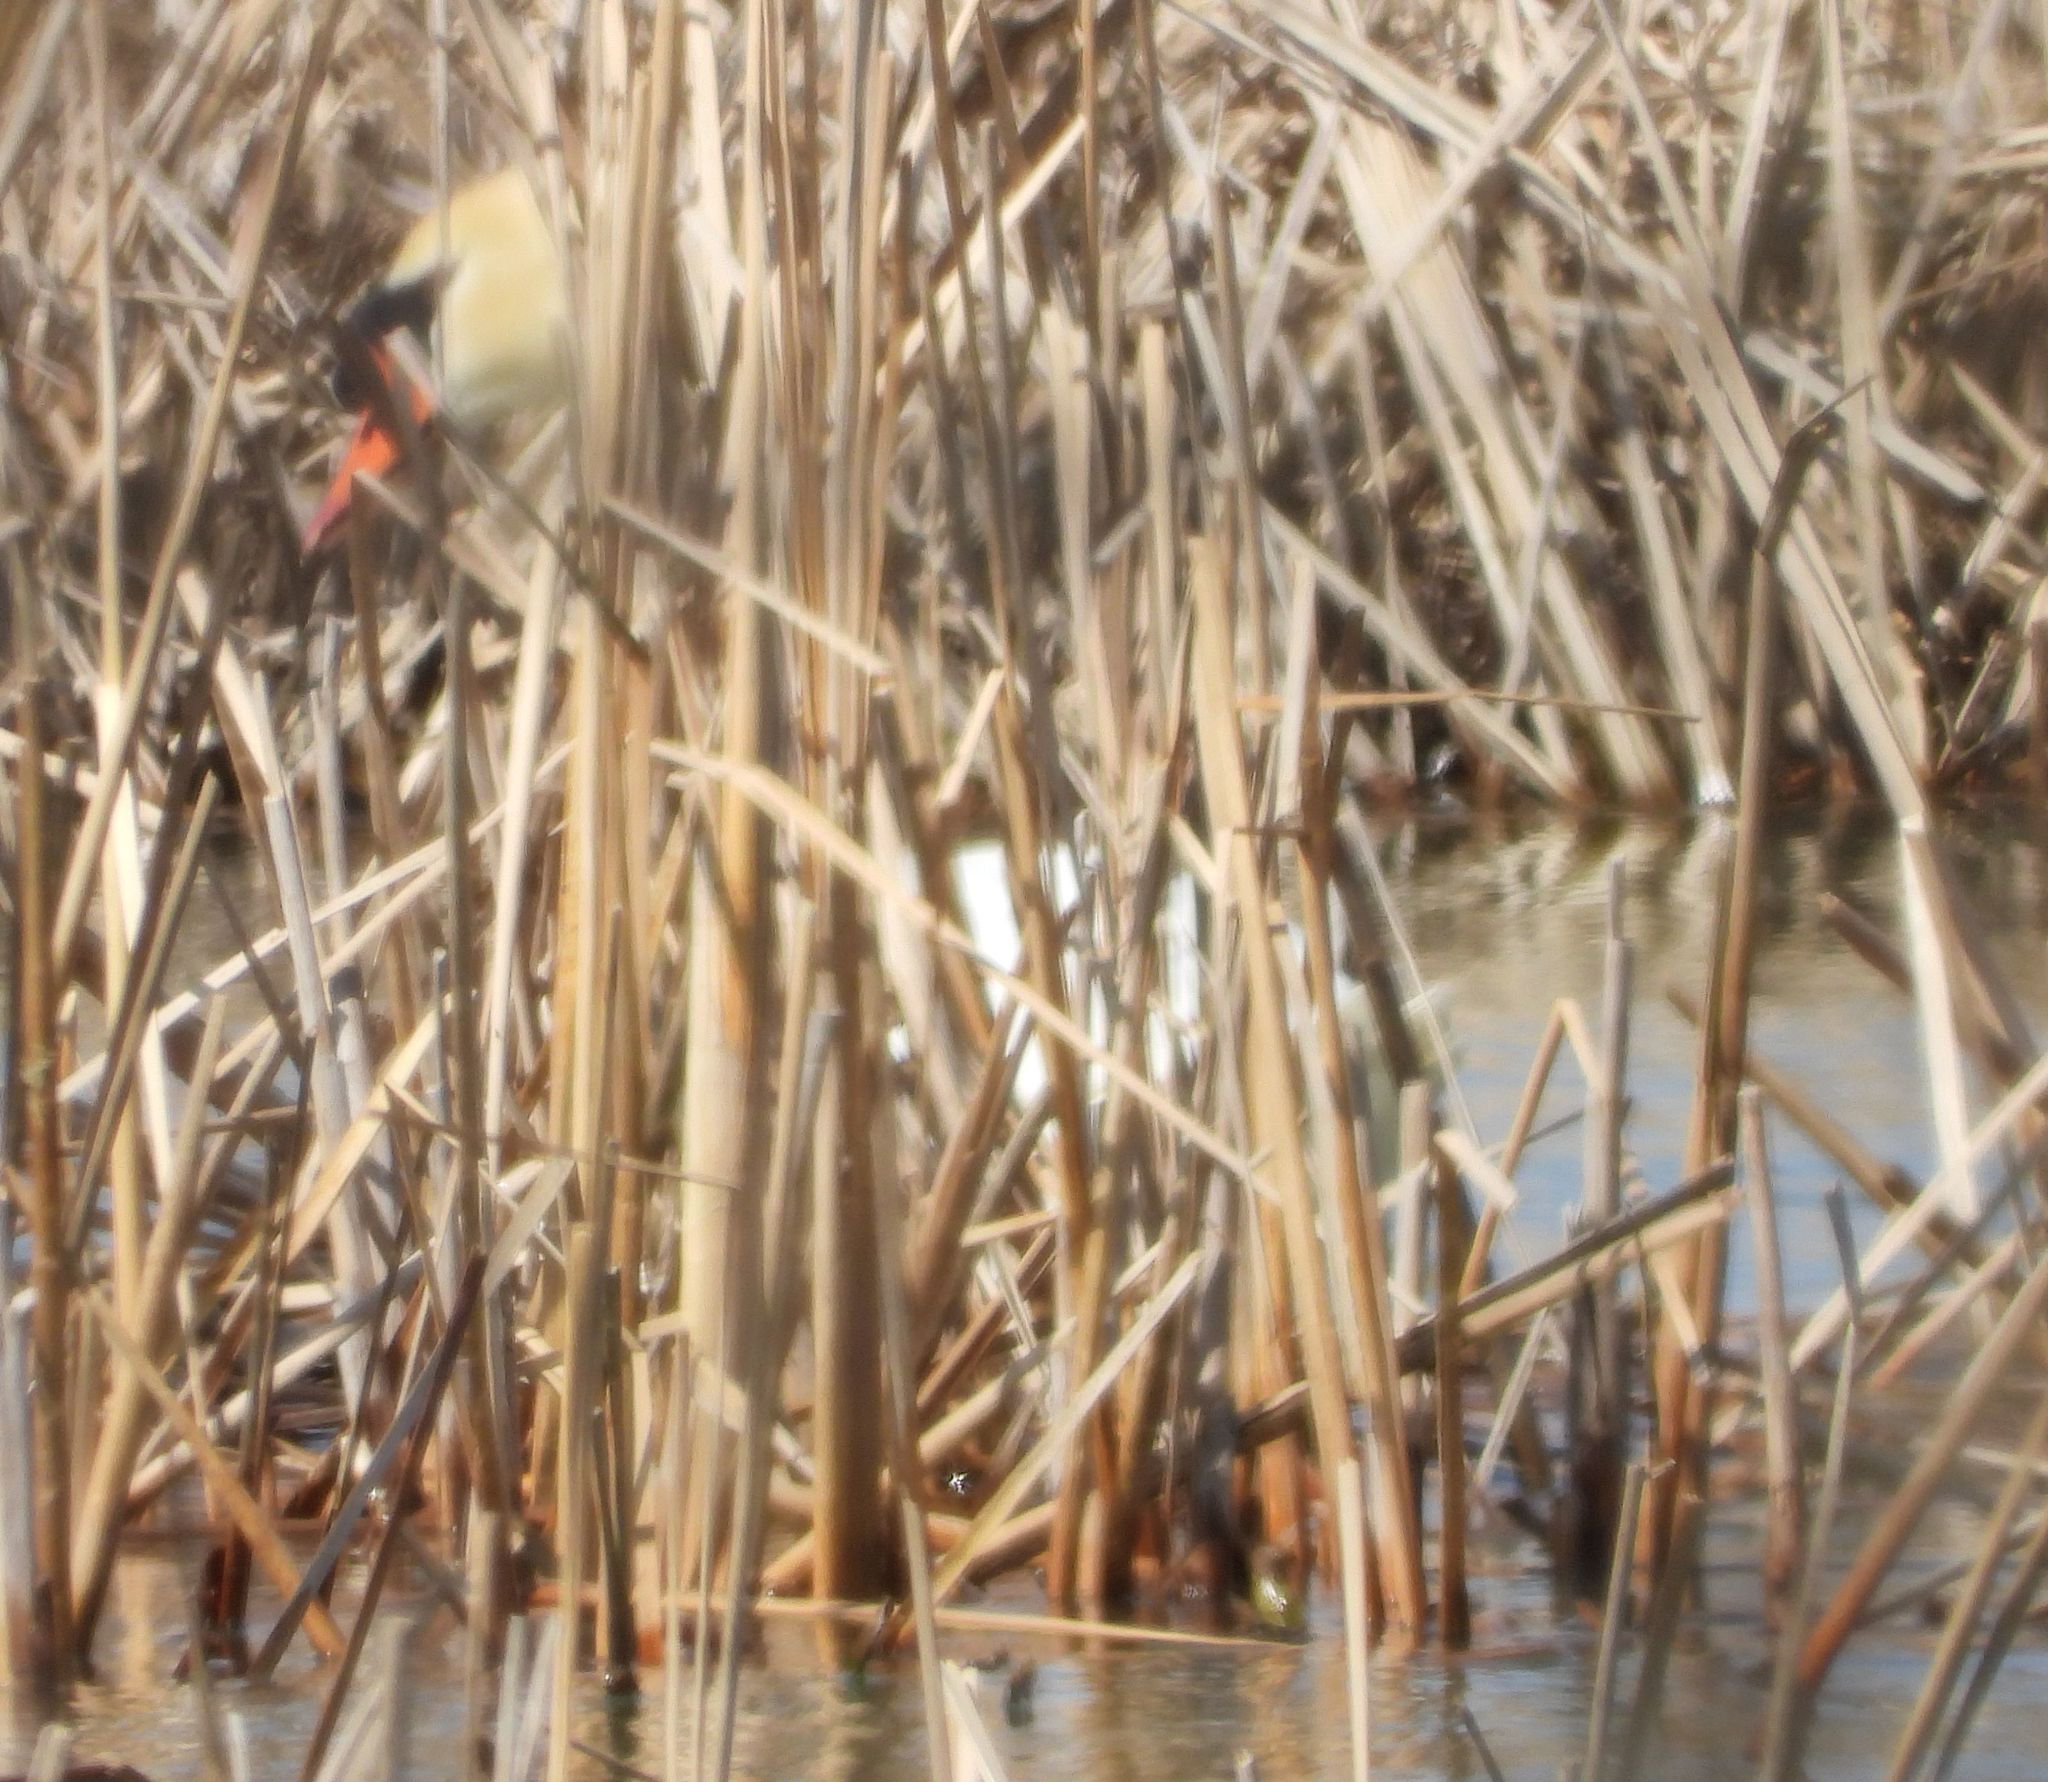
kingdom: Animalia
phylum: Chordata
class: Aves
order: Anseriformes
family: Anatidae
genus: Cygnus
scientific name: Cygnus olor
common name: Mute swan
